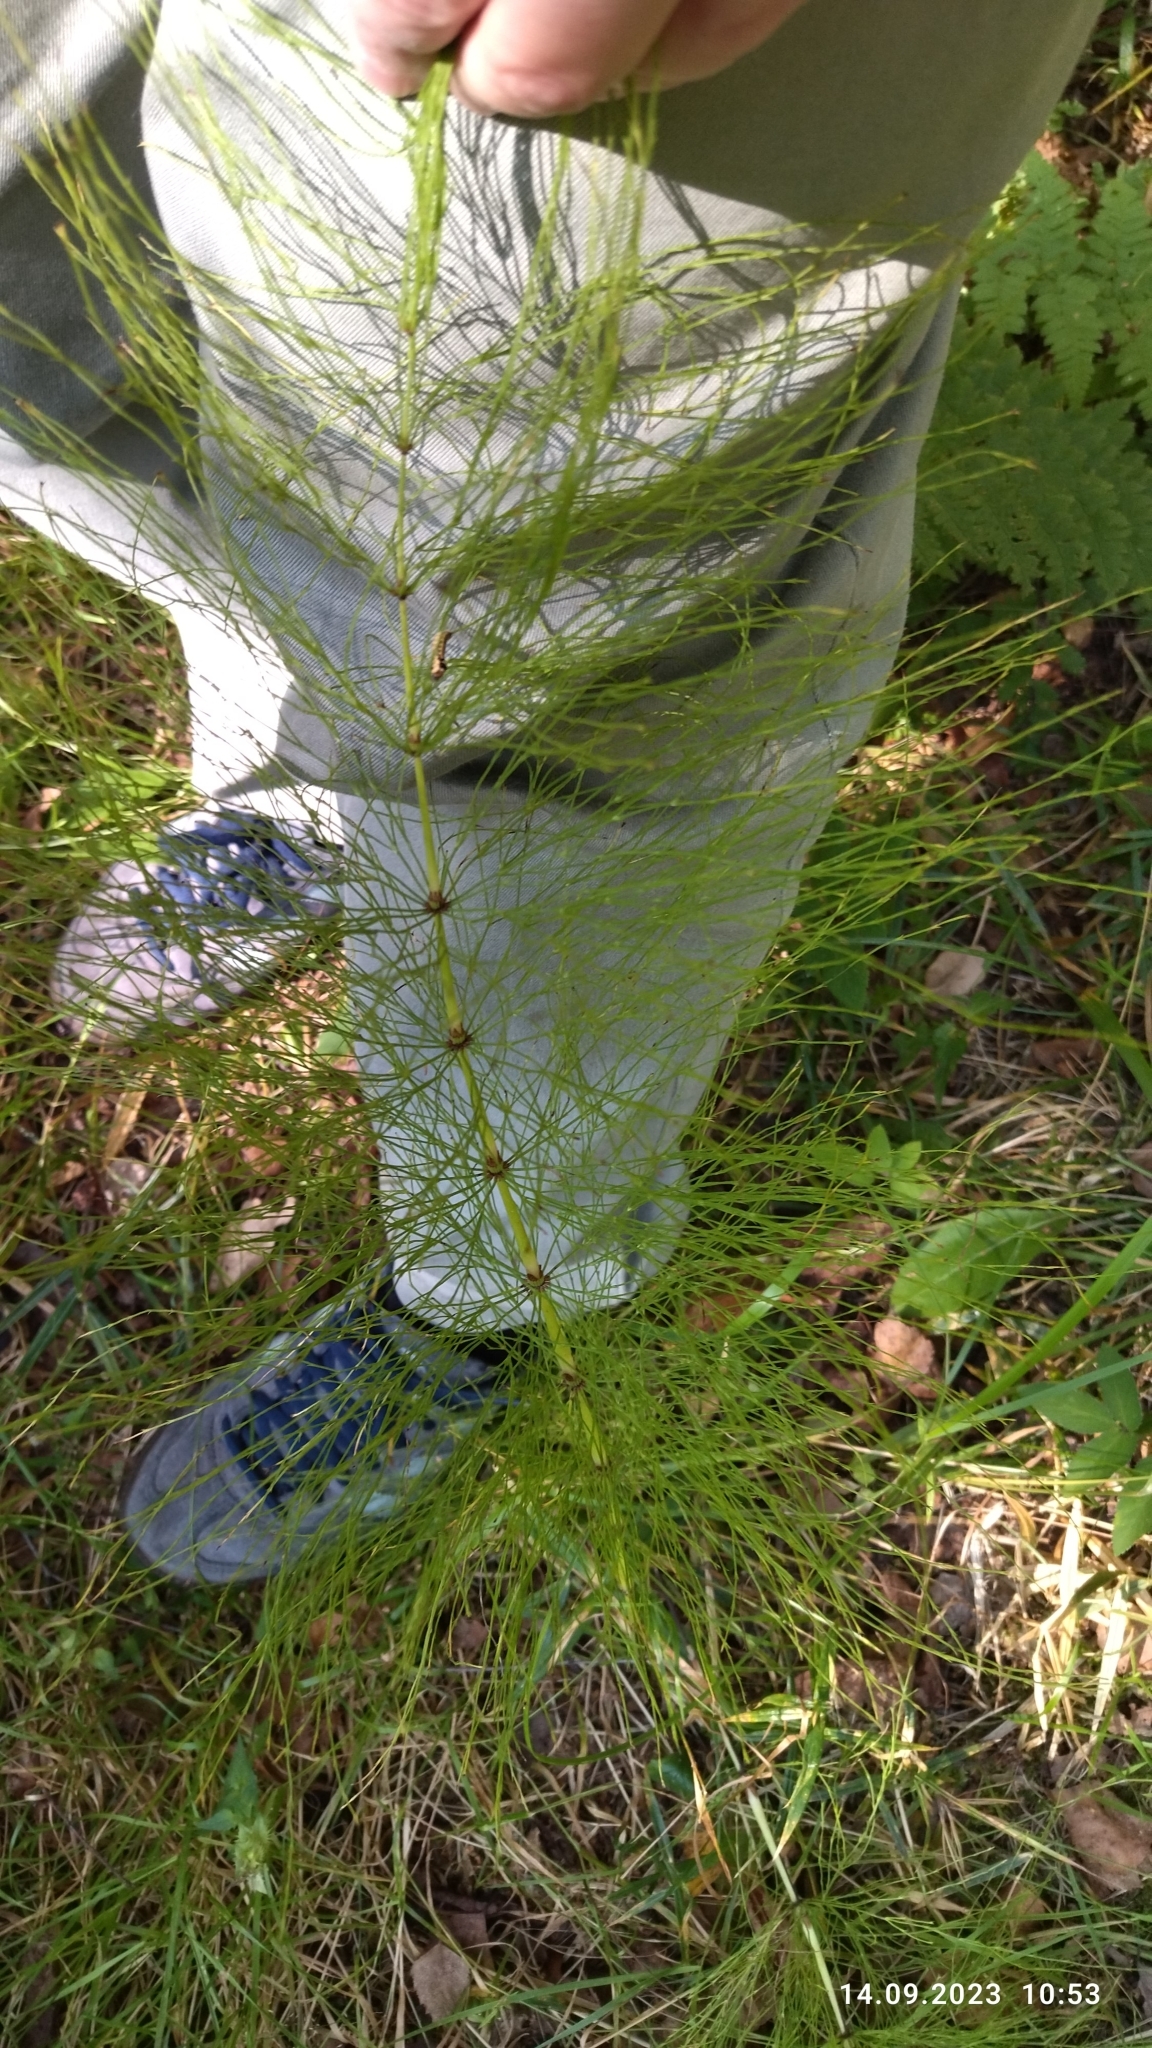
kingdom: Plantae
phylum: Tracheophyta
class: Polypodiopsida
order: Equisetales
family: Equisetaceae
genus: Equisetum
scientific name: Equisetum sylvaticum
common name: Wood horsetail
